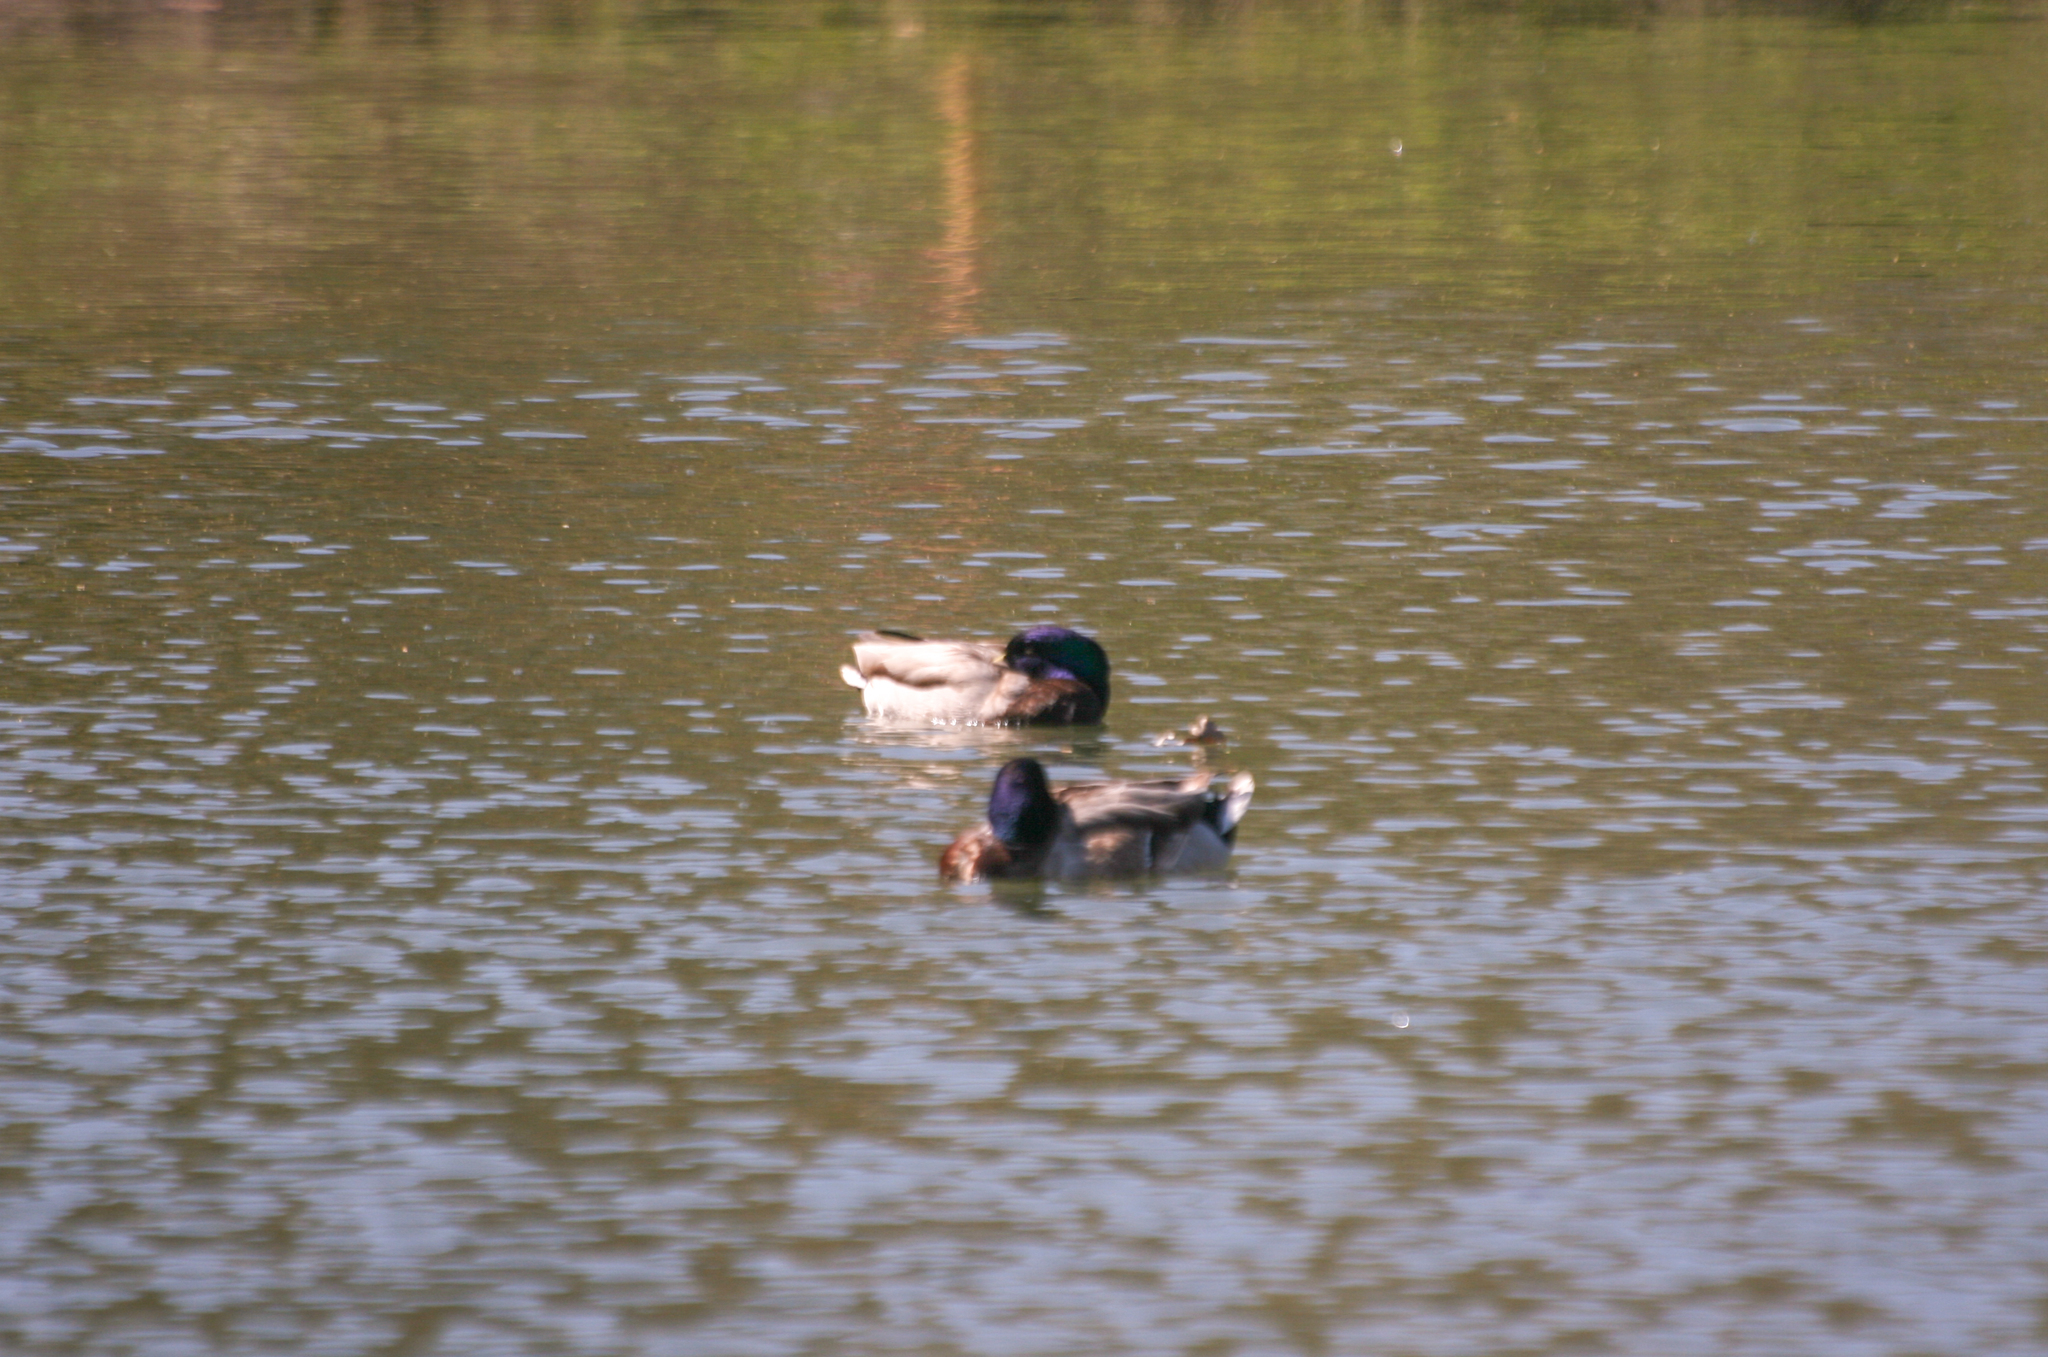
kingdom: Animalia
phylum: Chordata
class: Aves
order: Anseriformes
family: Anatidae
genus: Anas
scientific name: Anas platyrhynchos
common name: Mallard
